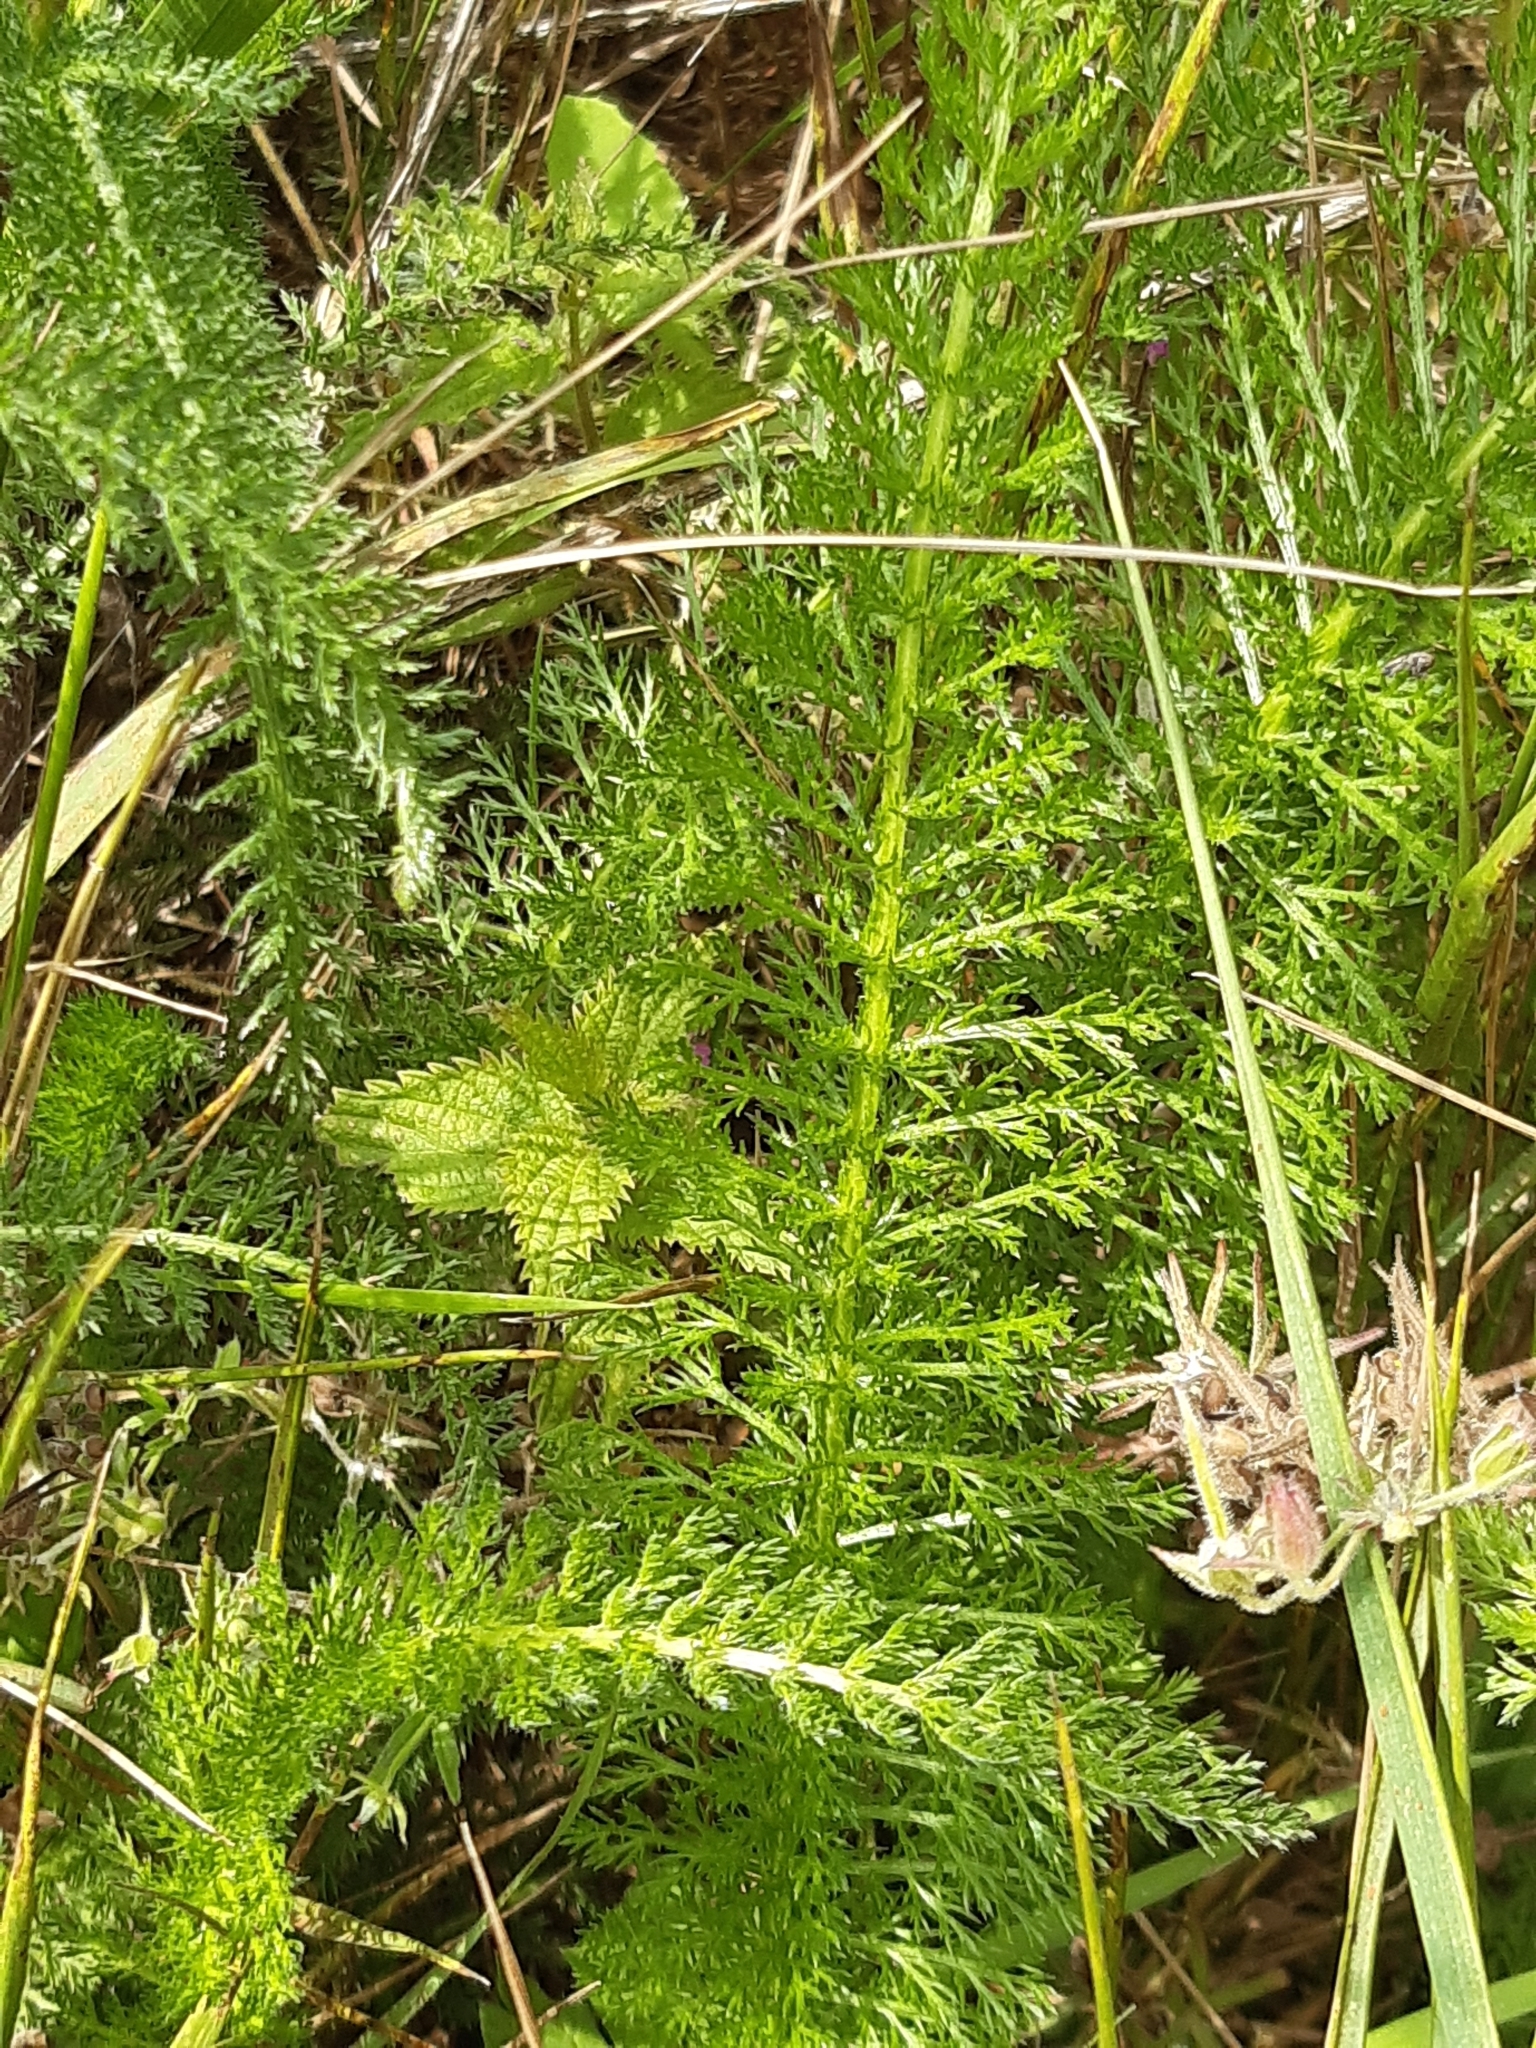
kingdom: Plantae
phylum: Tracheophyta
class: Magnoliopsida
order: Asterales
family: Asteraceae
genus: Achillea
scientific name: Achillea millefolium
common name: Yarrow
